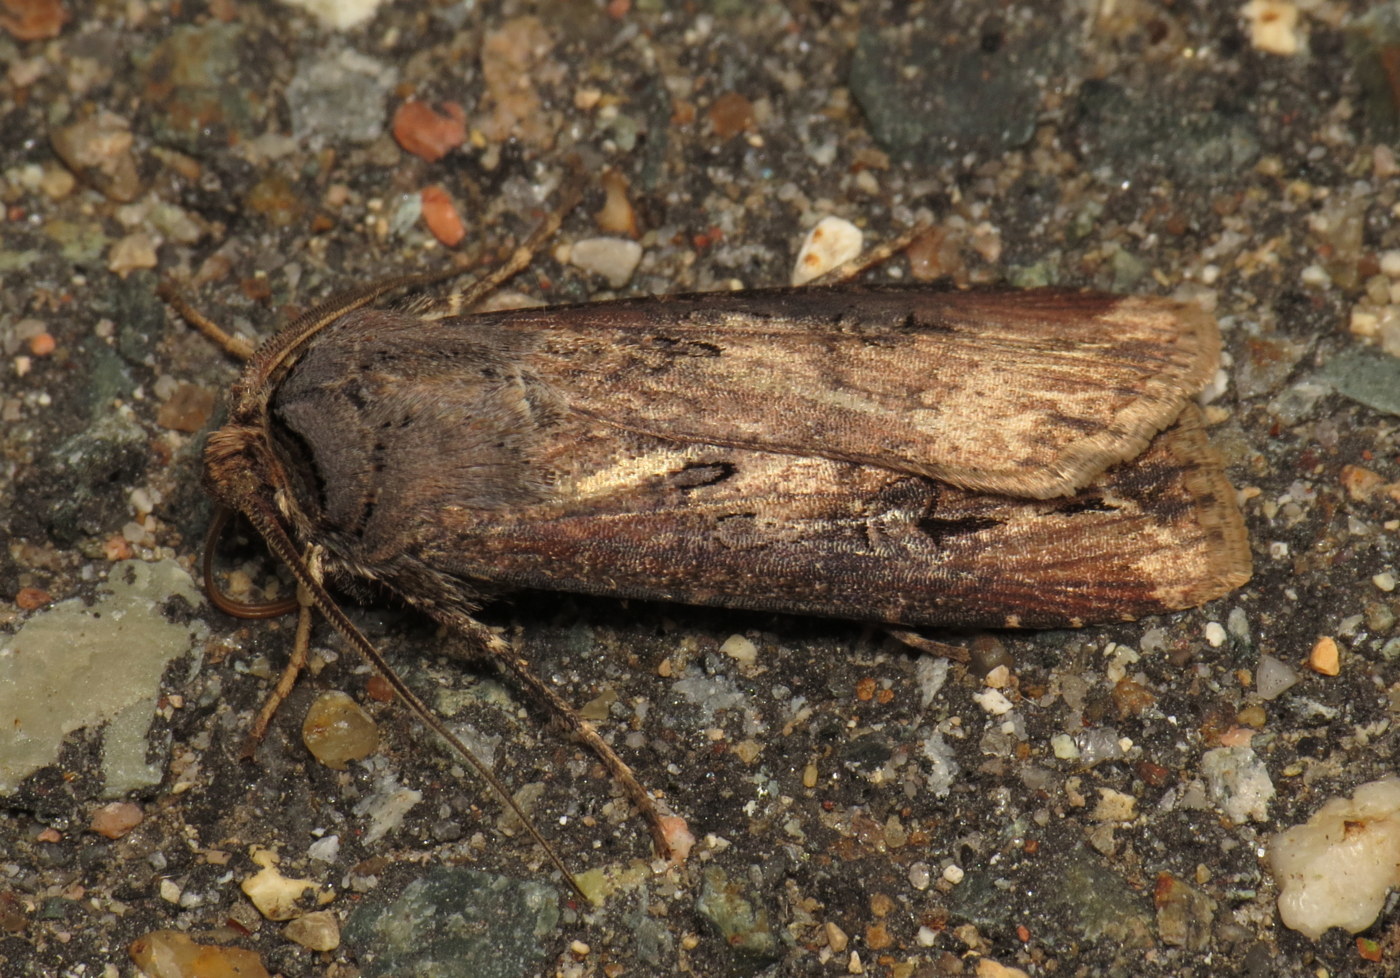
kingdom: Animalia
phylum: Arthropoda
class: Insecta
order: Lepidoptera
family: Noctuidae
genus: Agrotis
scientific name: Agrotis ipsilon
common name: Dark sword-grass
